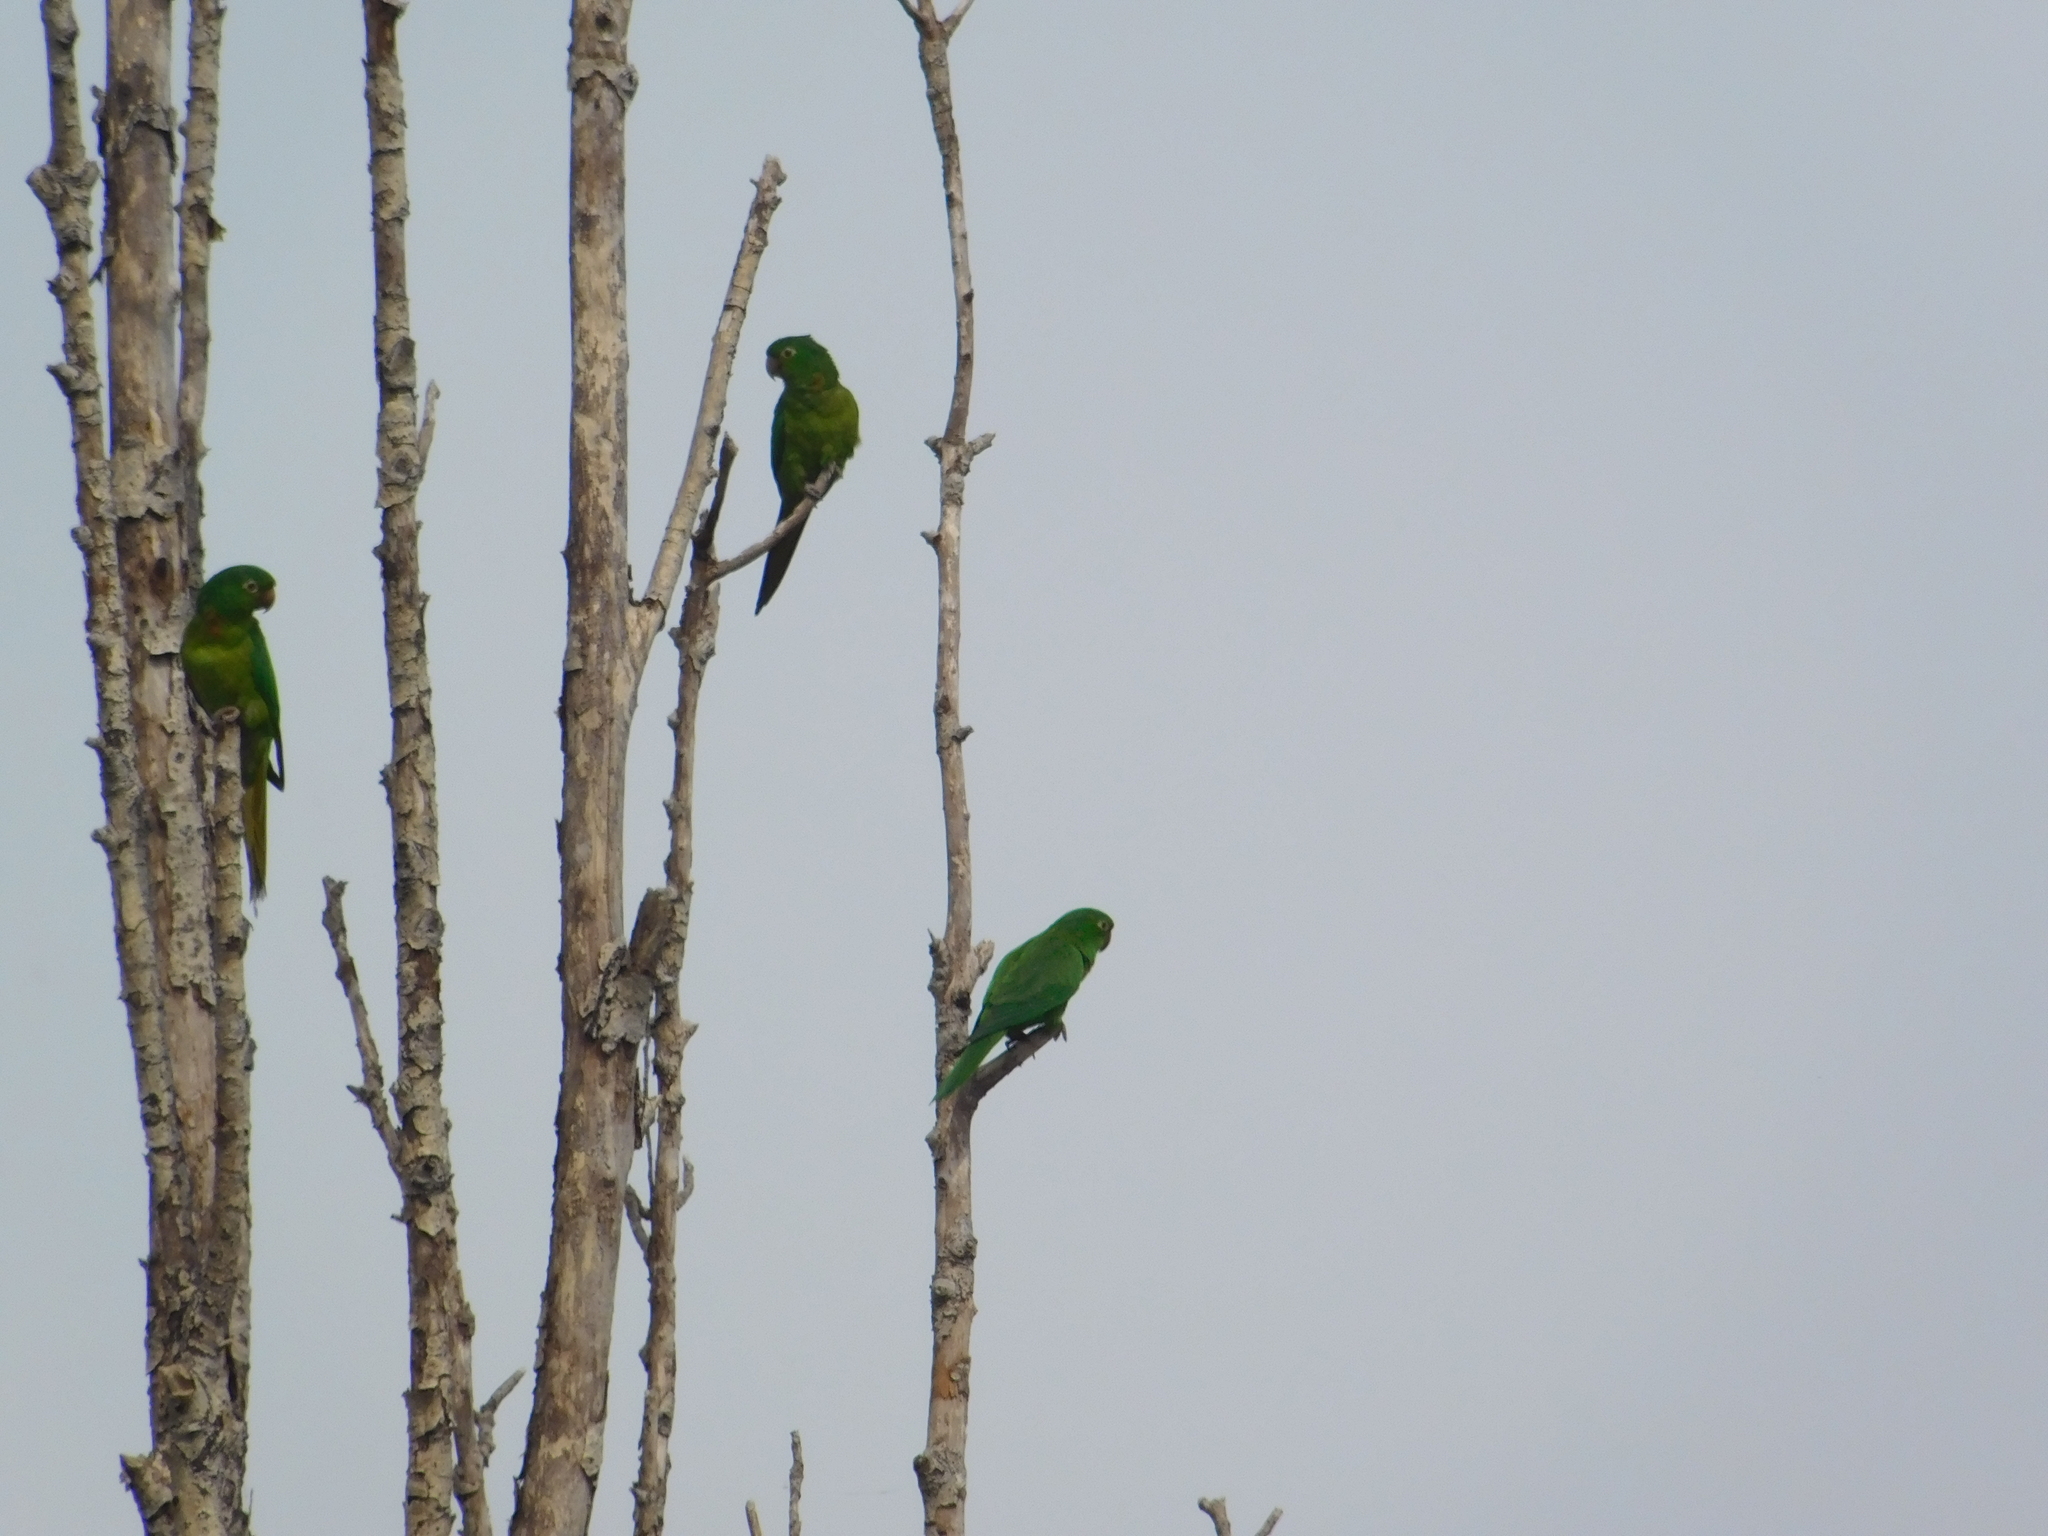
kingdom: Animalia
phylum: Chordata
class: Aves
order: Psittaciformes
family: Psittacidae
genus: Aratinga
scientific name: Aratinga leucophthalma
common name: White-eyed parakeet
